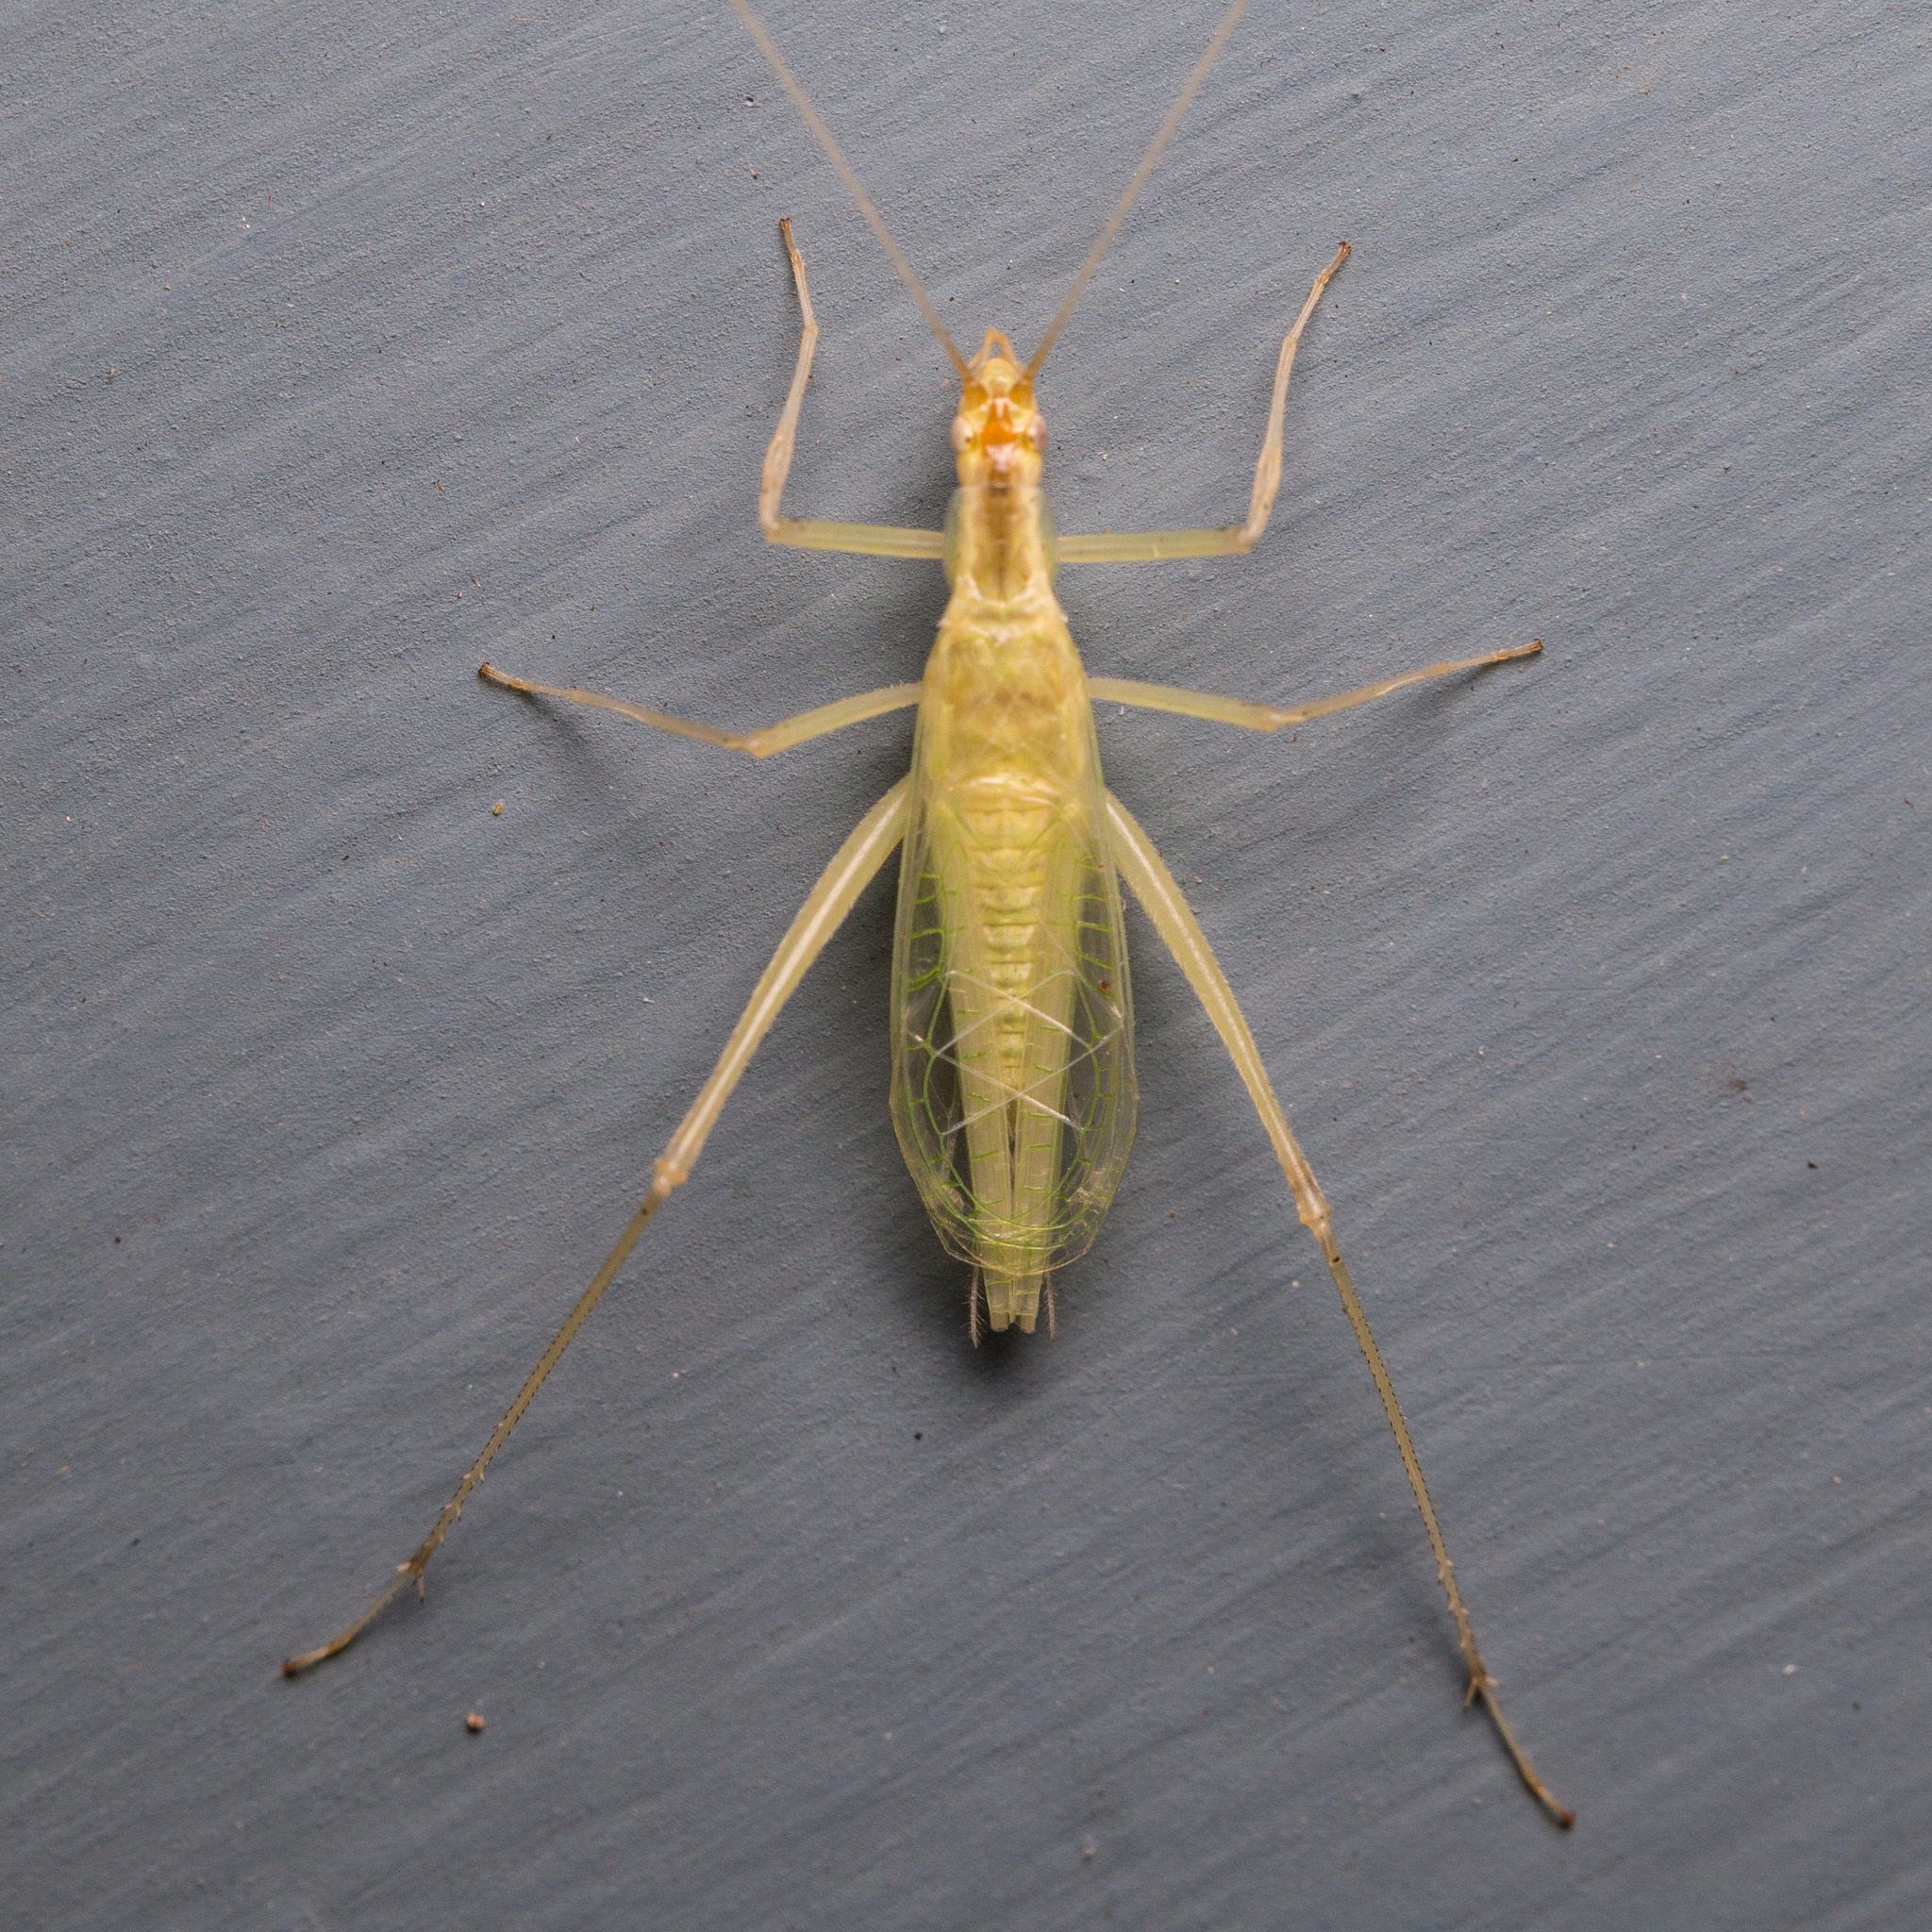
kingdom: Animalia
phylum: Arthropoda
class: Insecta
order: Orthoptera
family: Gryllidae
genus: Oecanthus
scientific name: Oecanthus niveus
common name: Narrow-winged tree cricket
